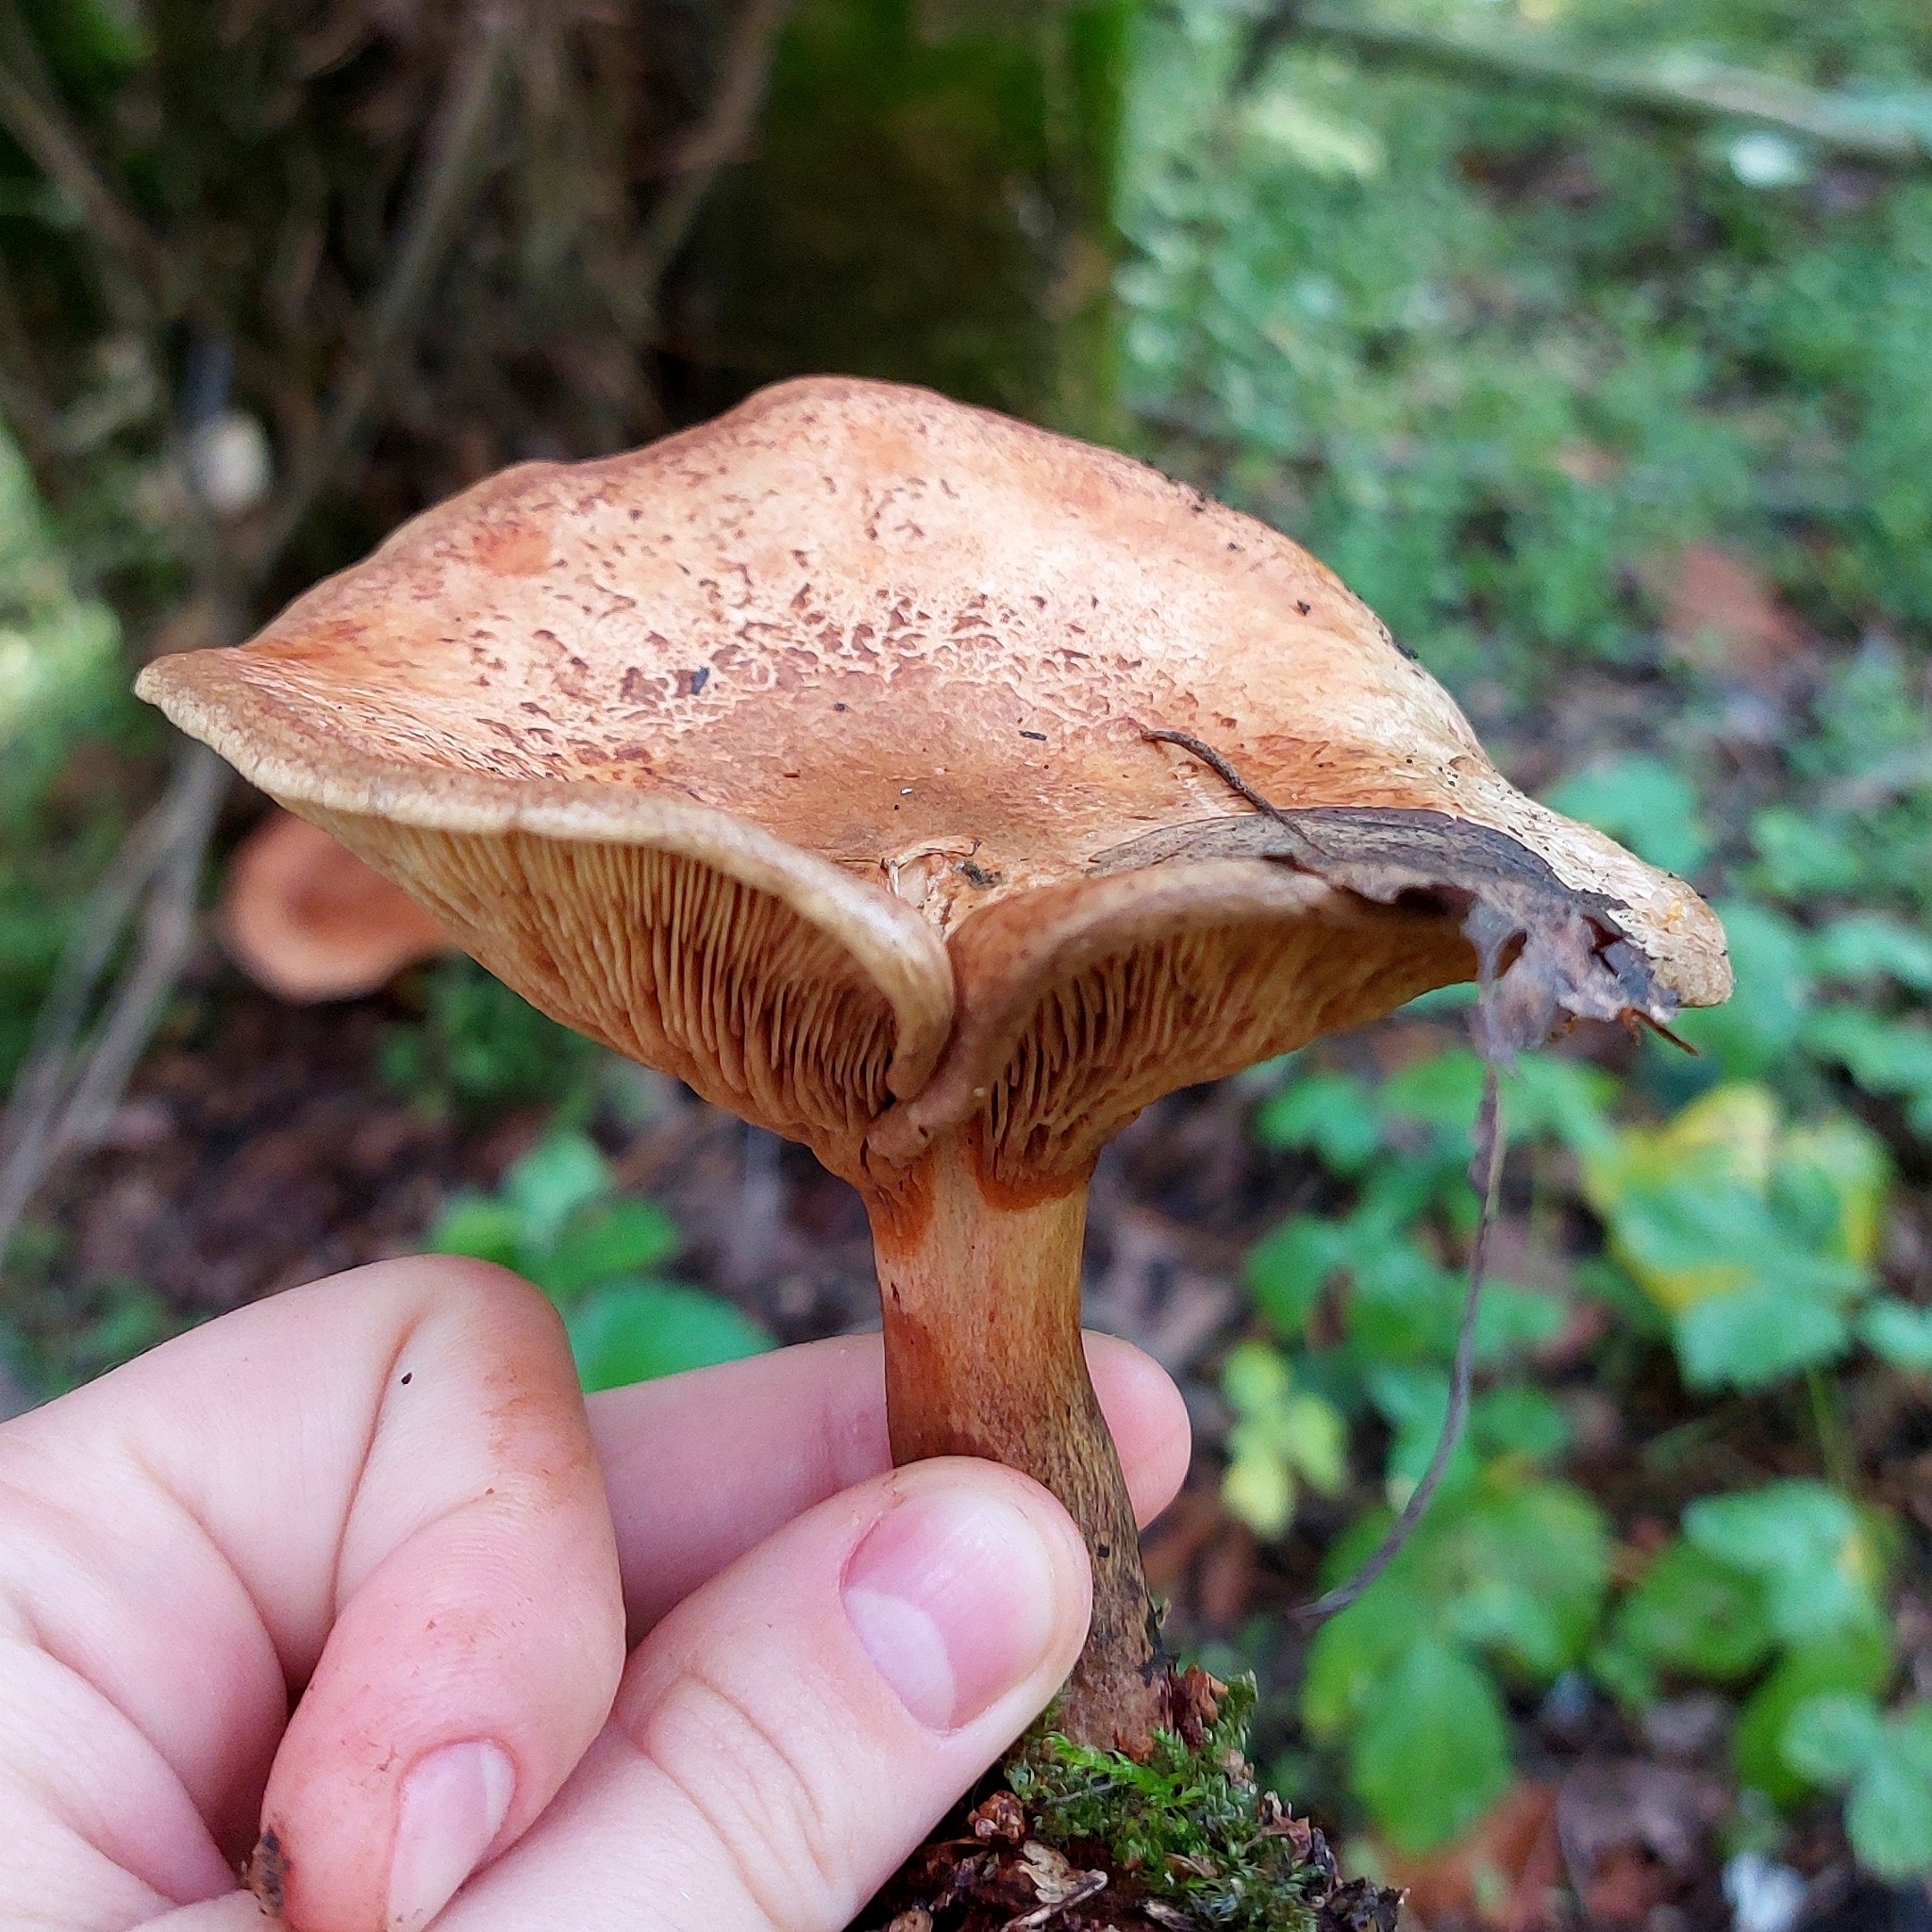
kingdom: Fungi
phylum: Basidiomycota
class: Agaricomycetes
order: Boletales
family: Paxillaceae
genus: Paxillus
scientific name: Paxillus involutus
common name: Brown roll rim
